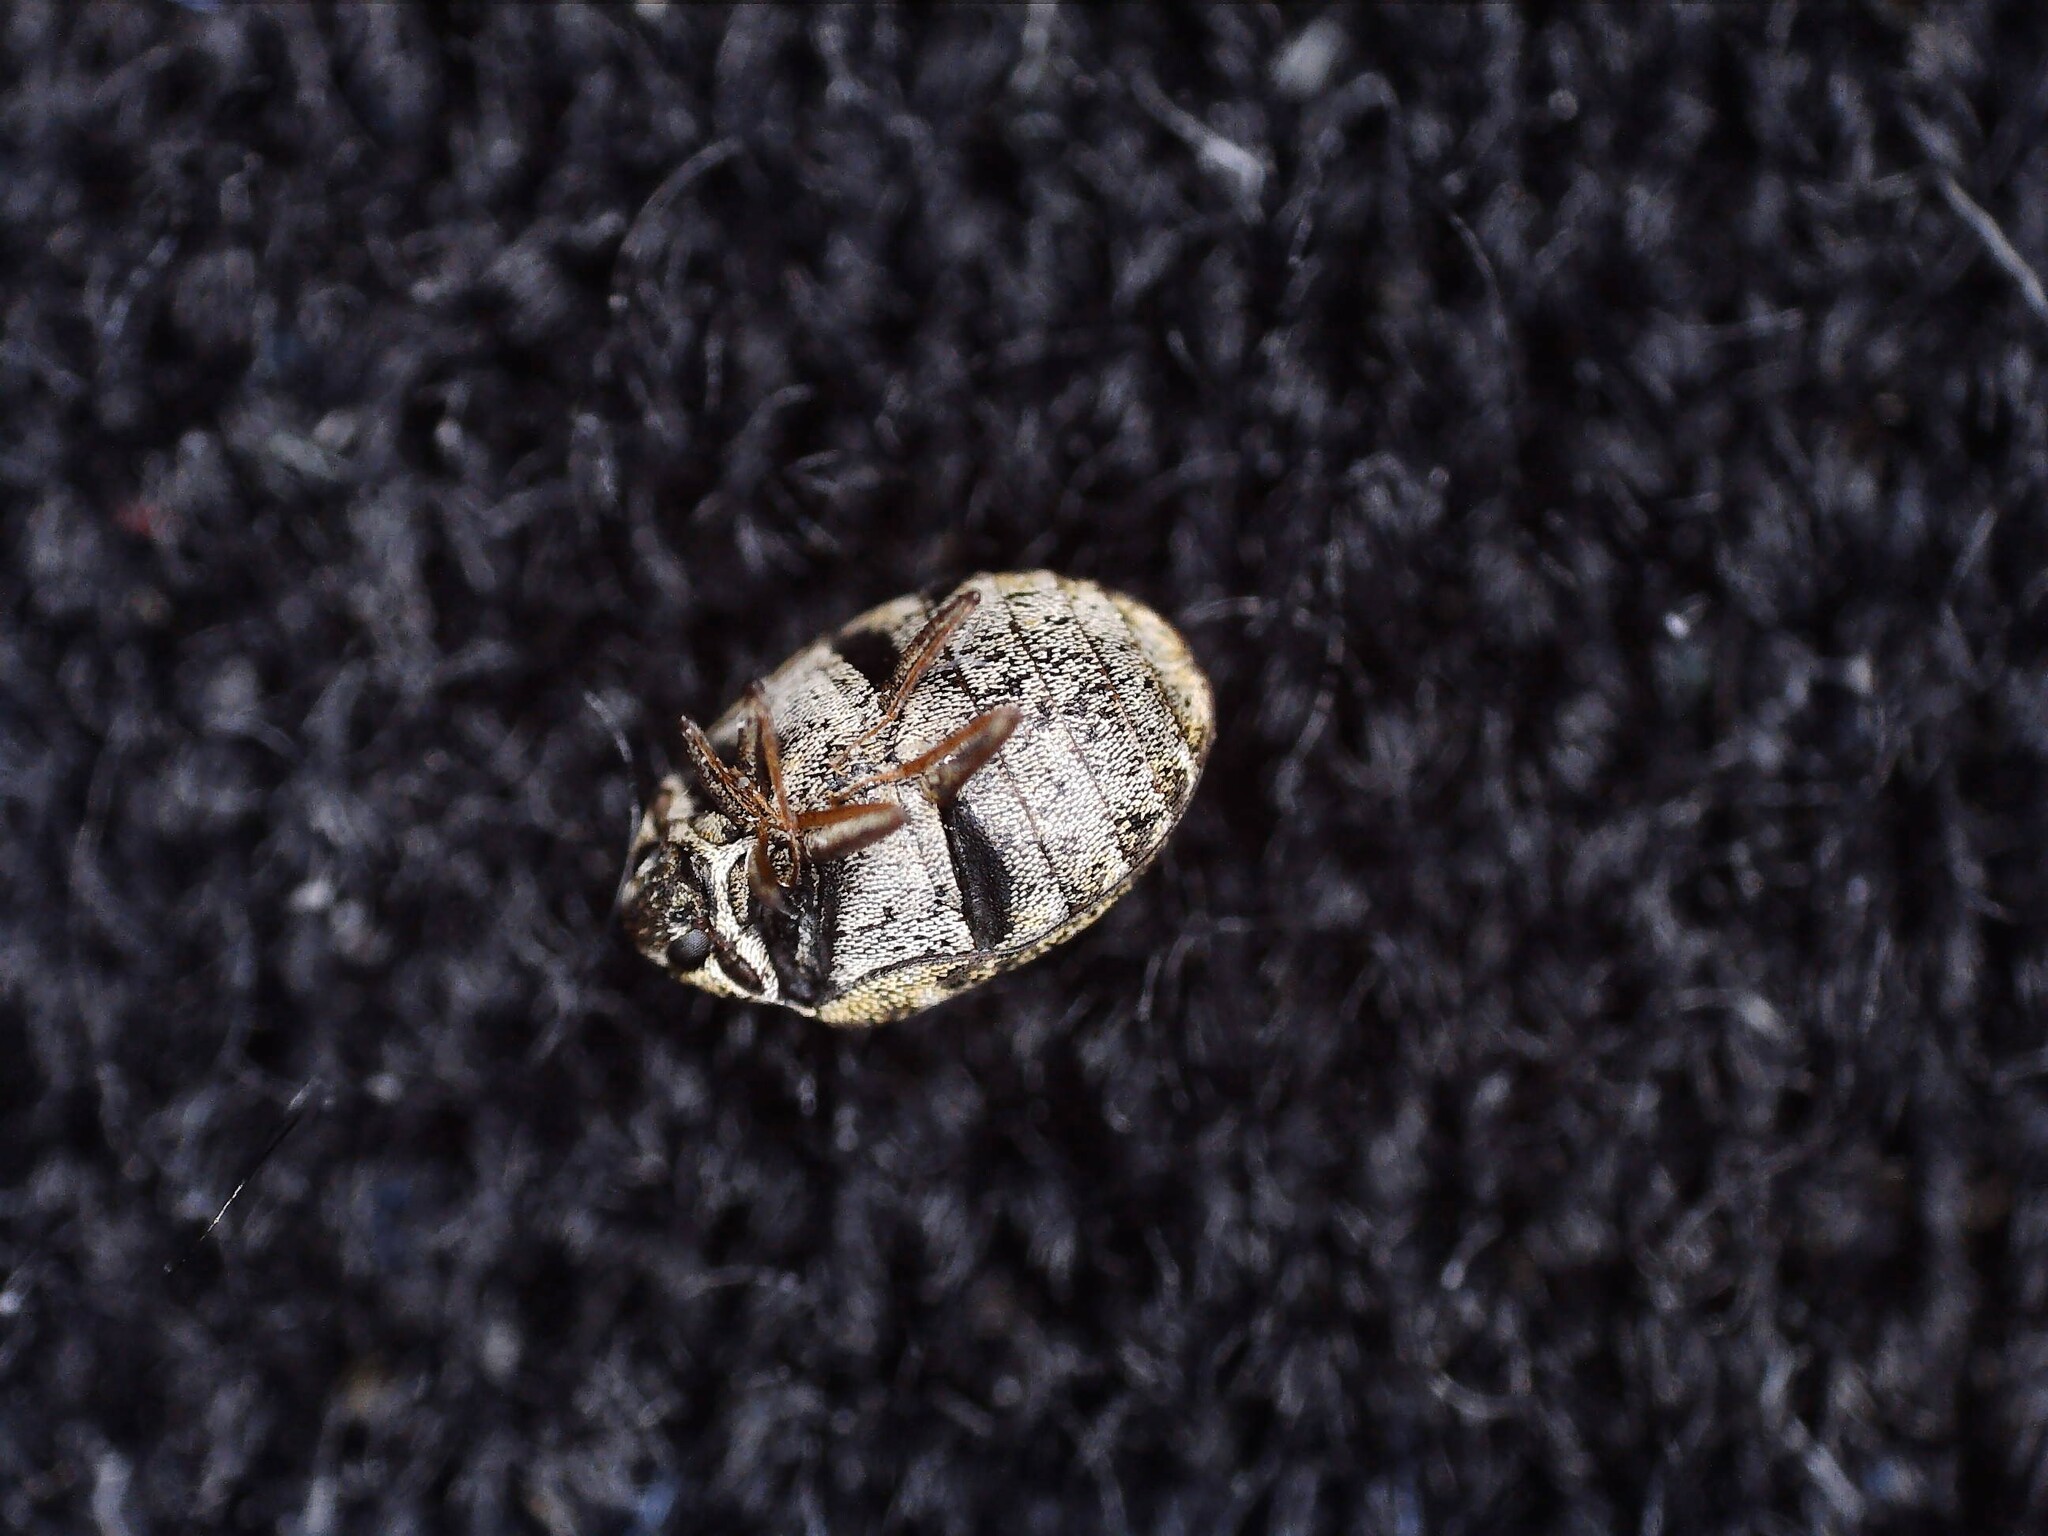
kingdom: Animalia
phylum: Arthropoda
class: Insecta
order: Coleoptera
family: Dermestidae
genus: Anthrenus
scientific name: Anthrenus museorum
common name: Museum beetle
